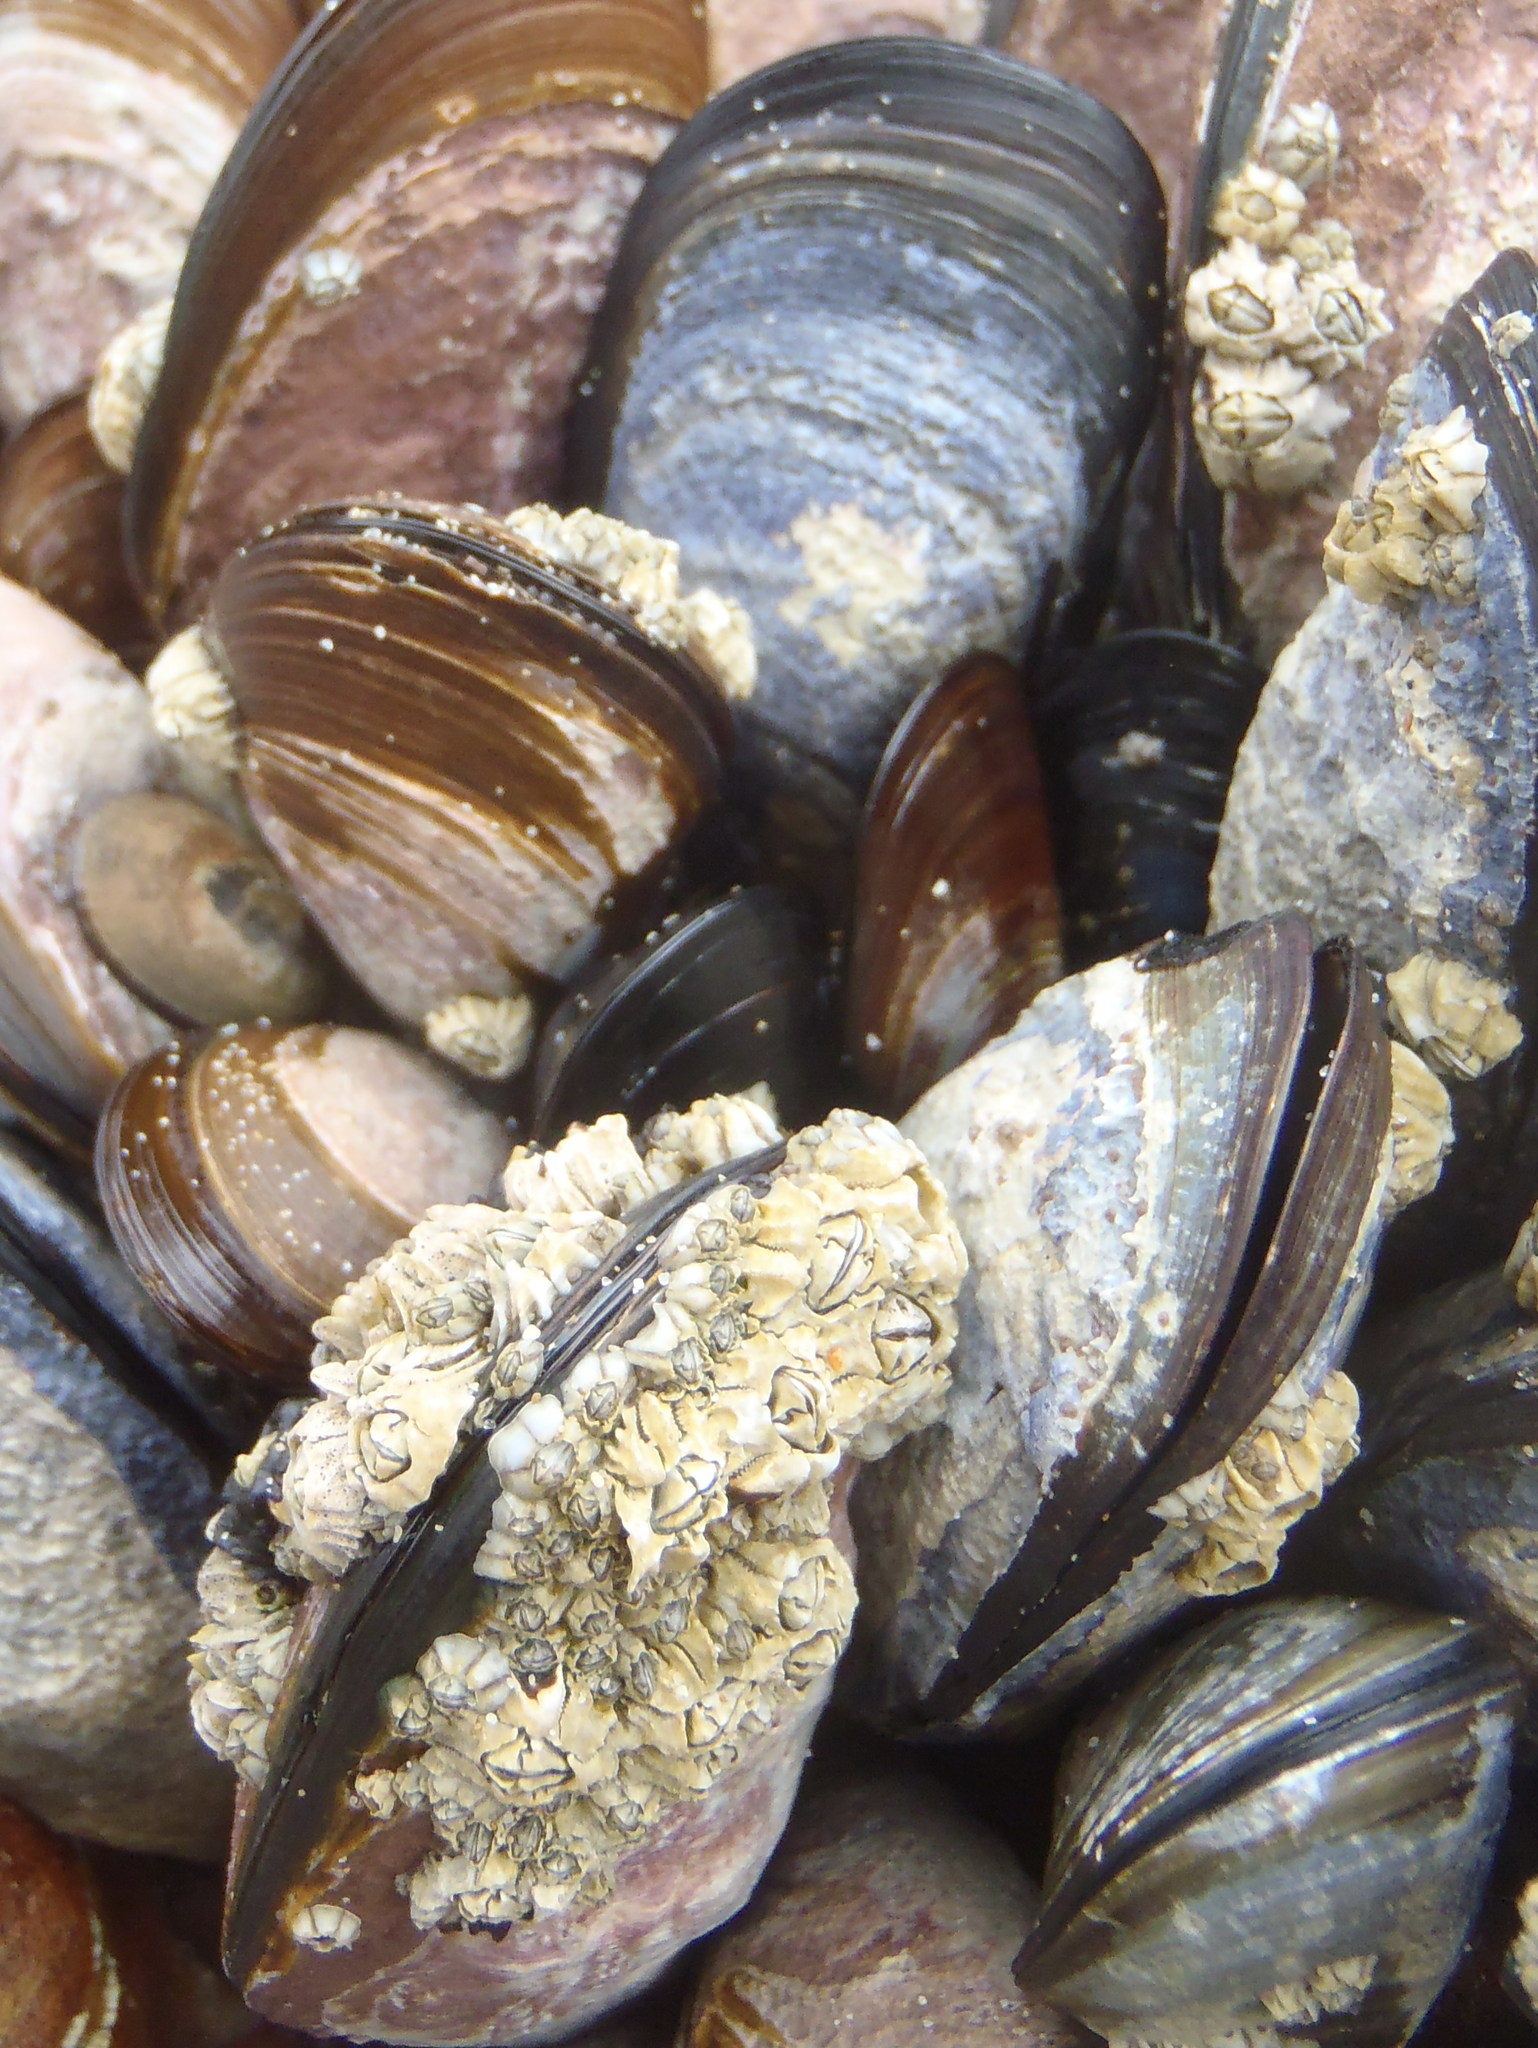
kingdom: Animalia
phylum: Arthropoda
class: Maxillopoda
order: Sessilia
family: Chthamalidae
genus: Chthamalus
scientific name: Chthamalus dentatus
